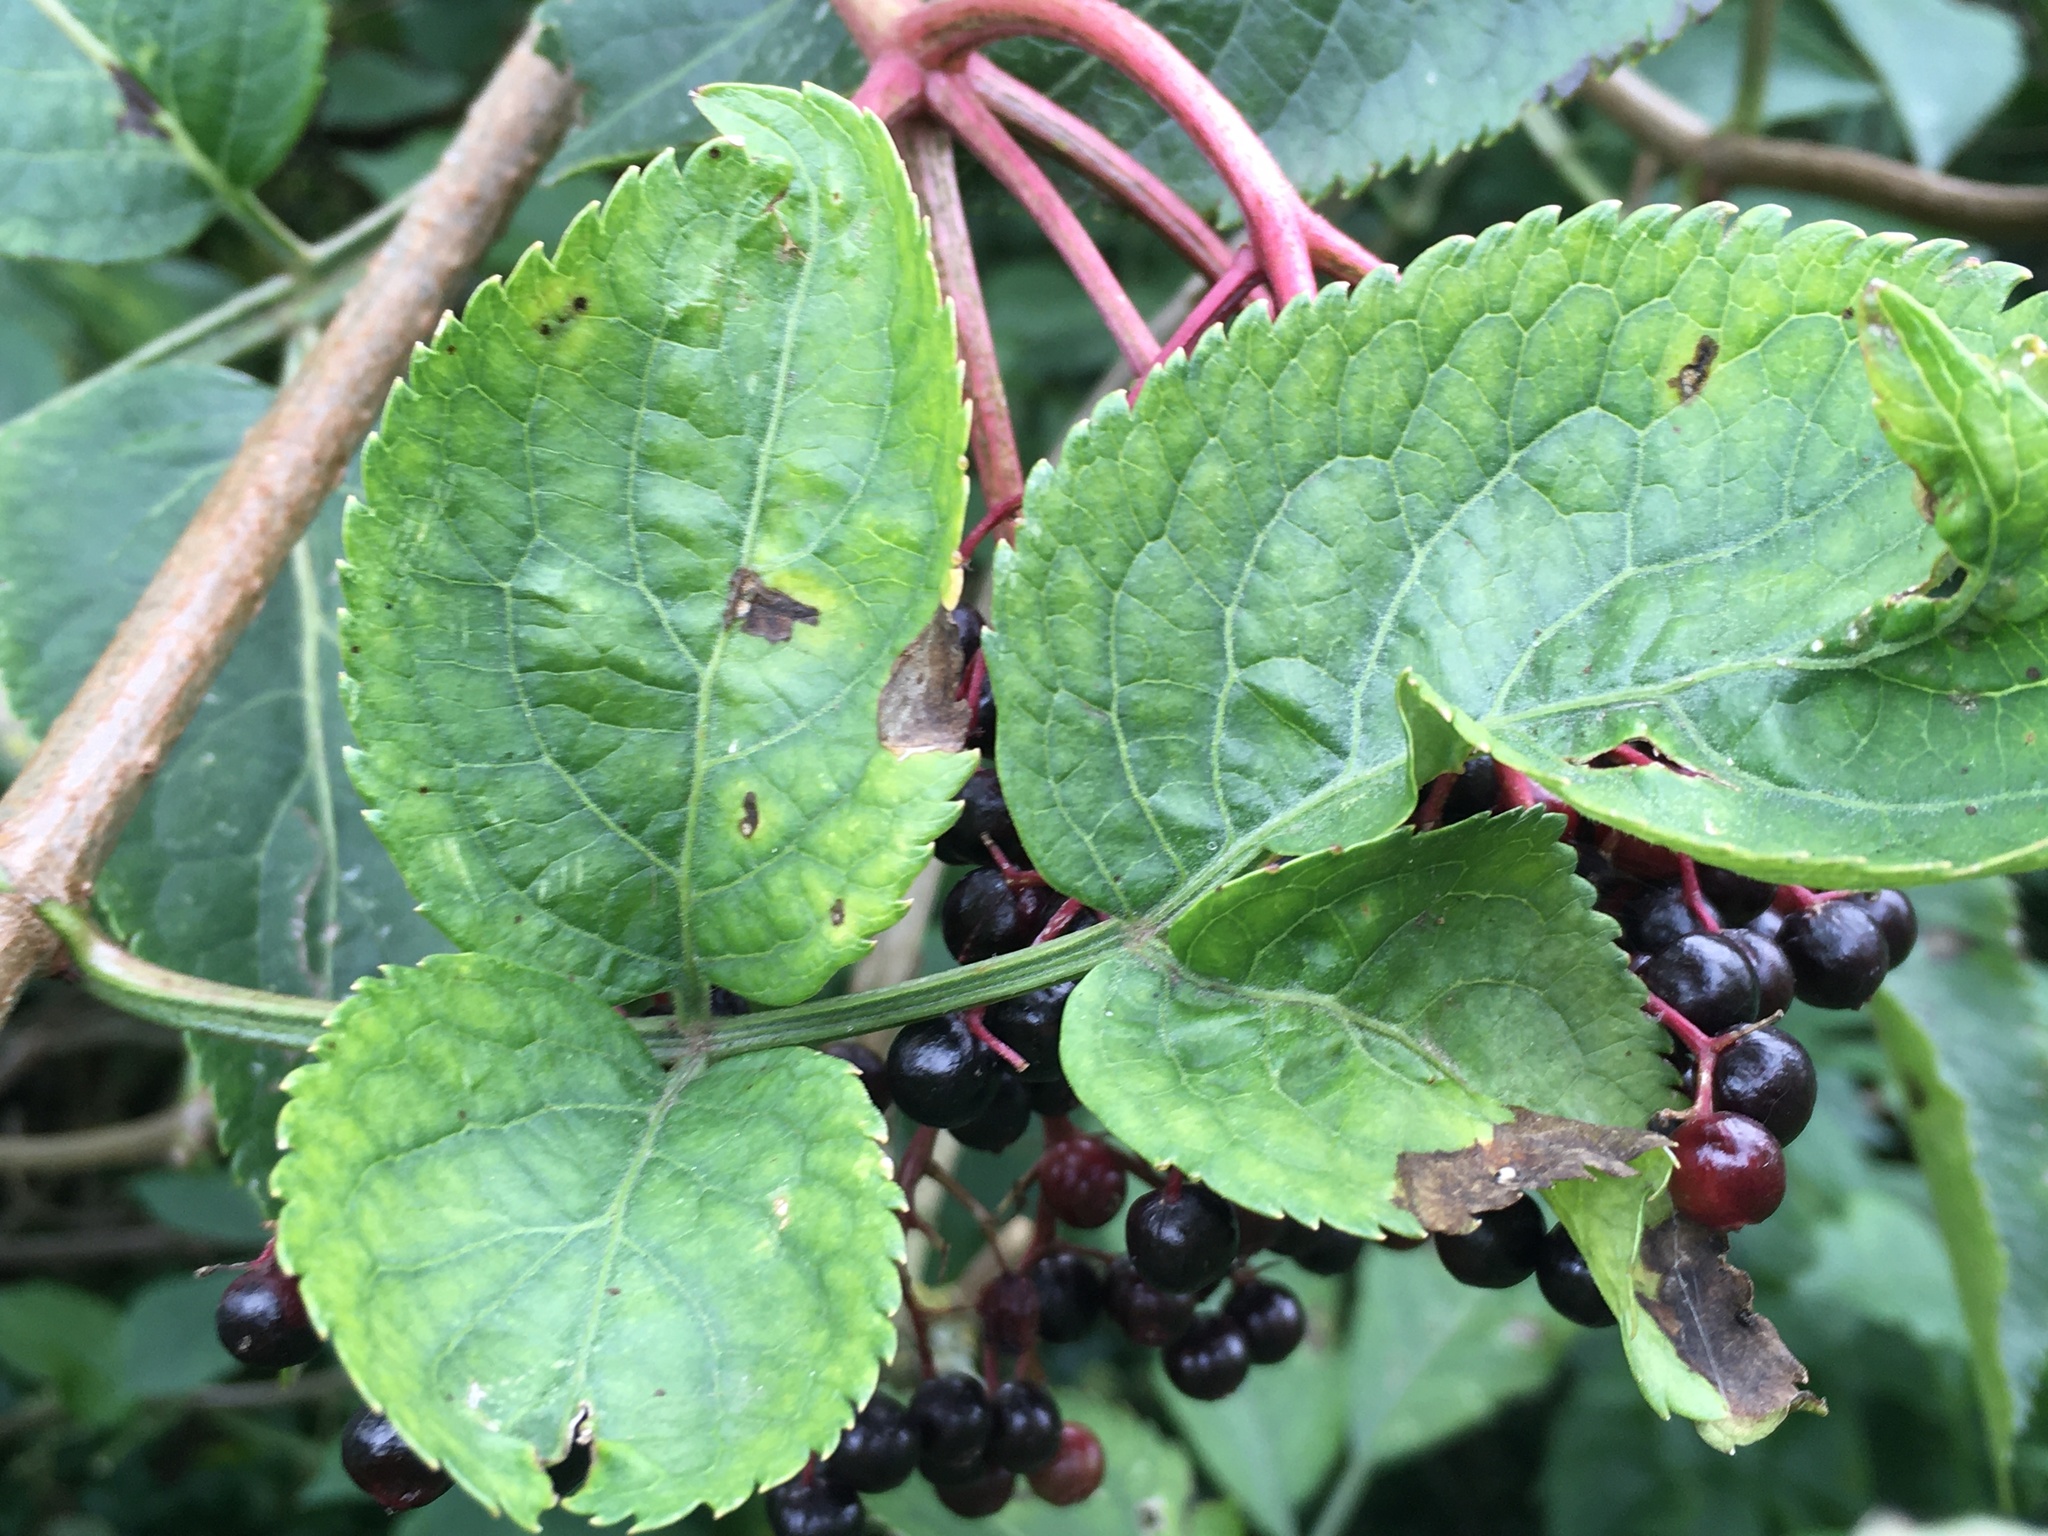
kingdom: Plantae
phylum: Tracheophyta
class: Magnoliopsida
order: Dipsacales
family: Viburnaceae
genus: Sambucus
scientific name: Sambucus nigra
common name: Elder
